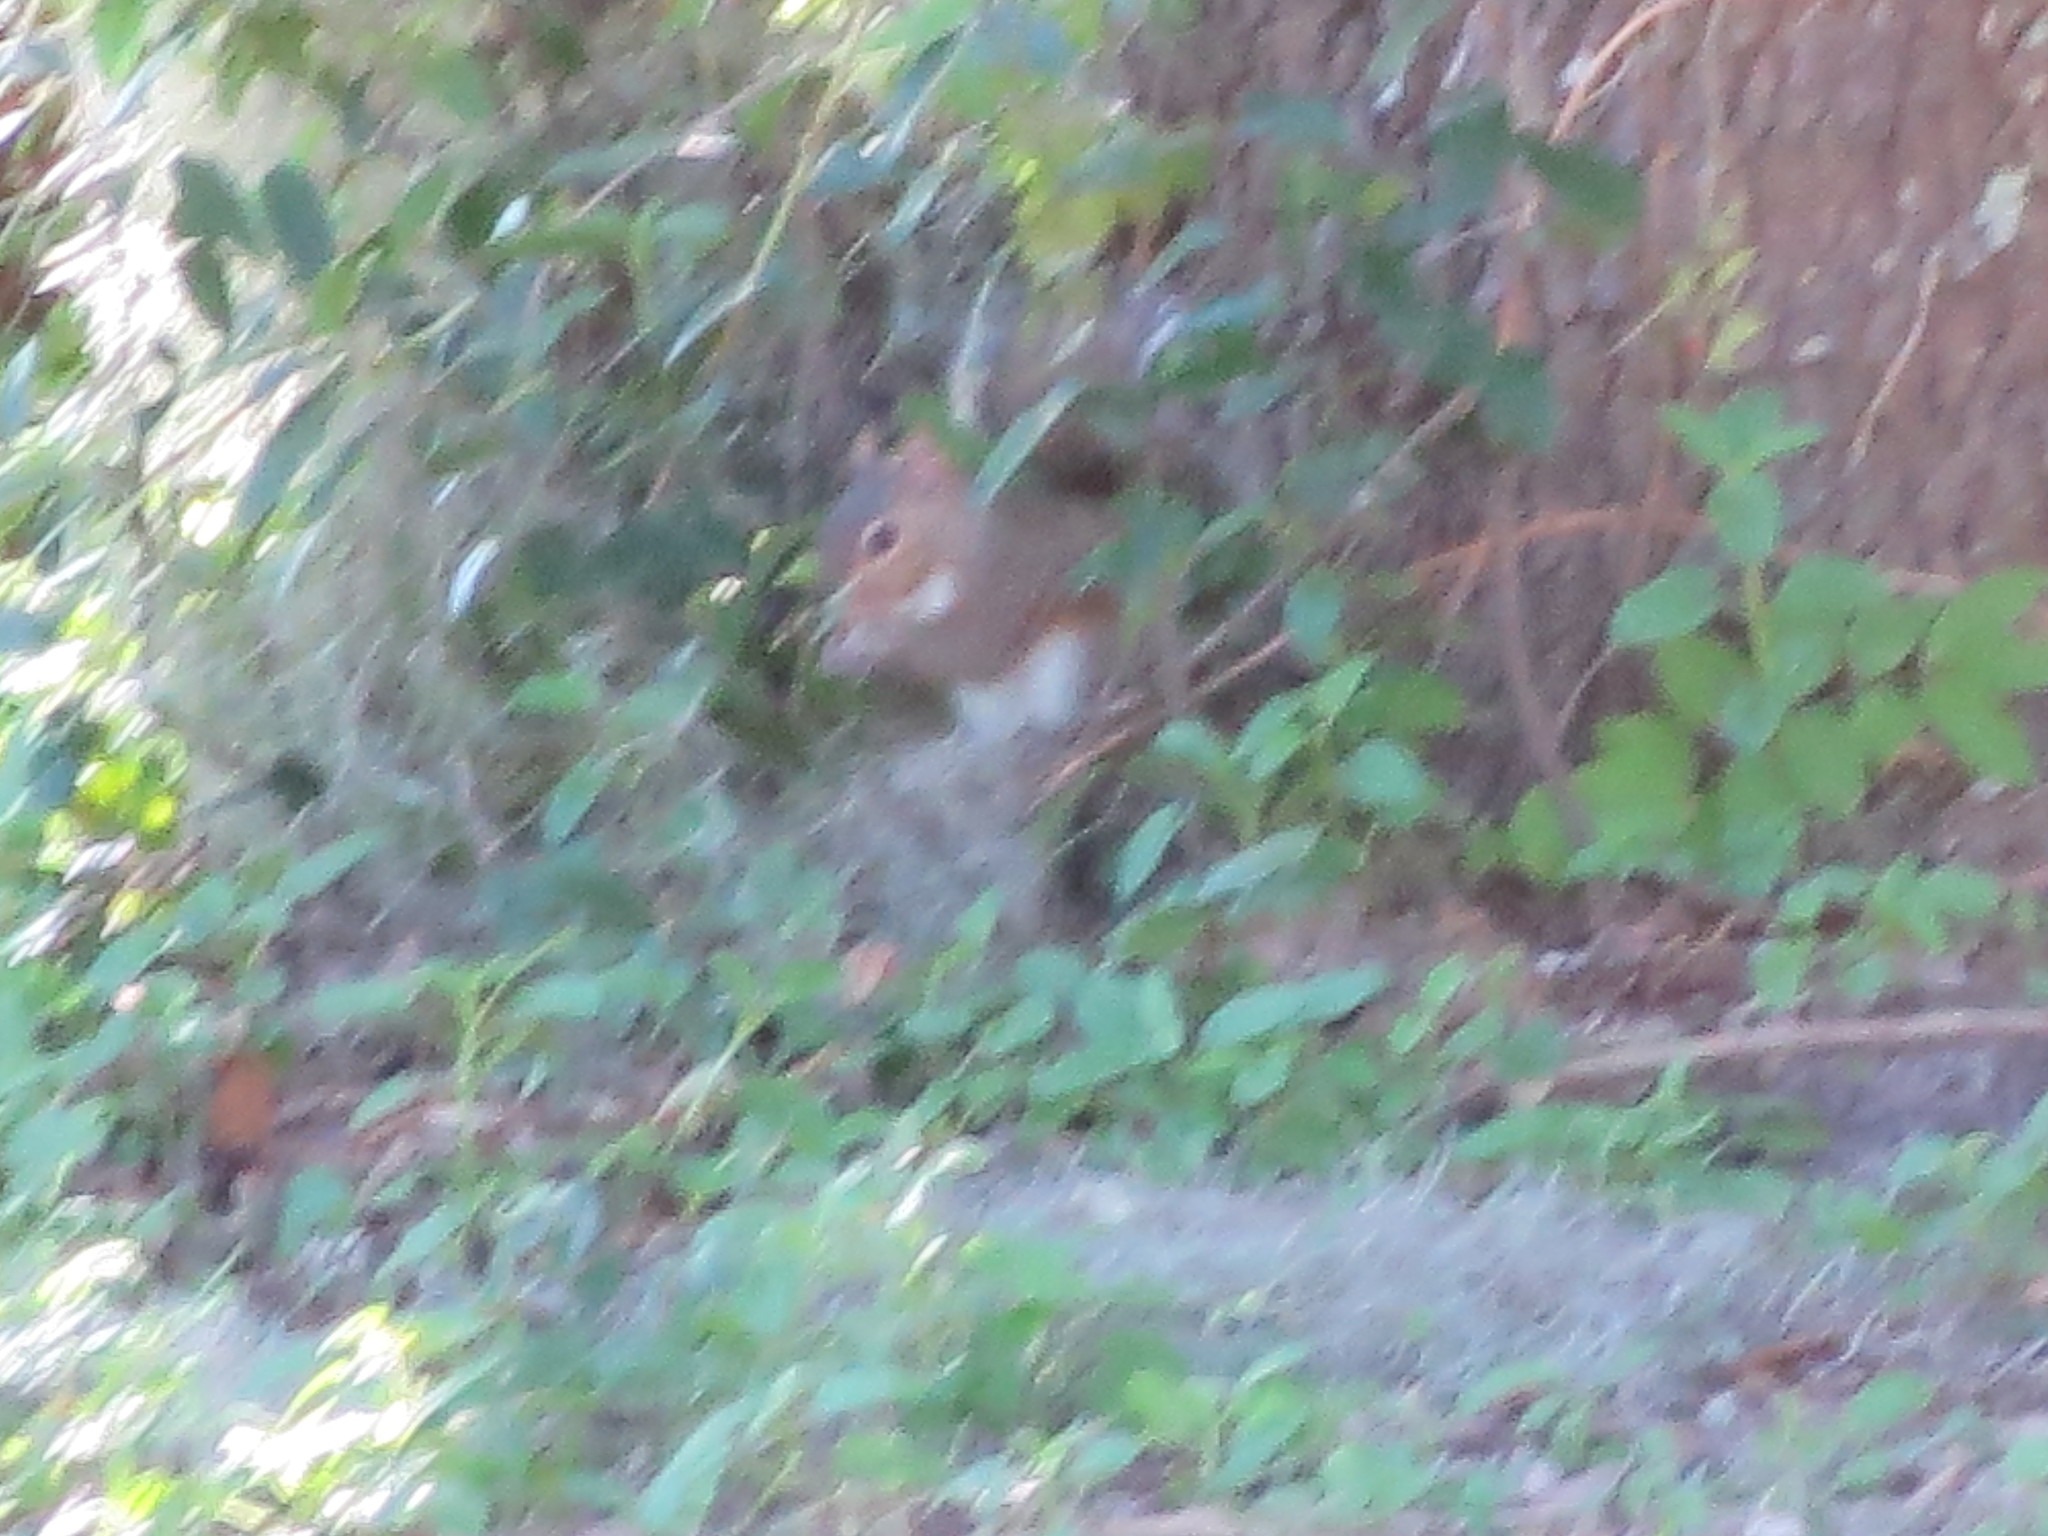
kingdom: Animalia
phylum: Chordata
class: Mammalia
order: Rodentia
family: Sciuridae
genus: Sciurus
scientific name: Sciurus carolinensis
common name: Eastern gray squirrel
